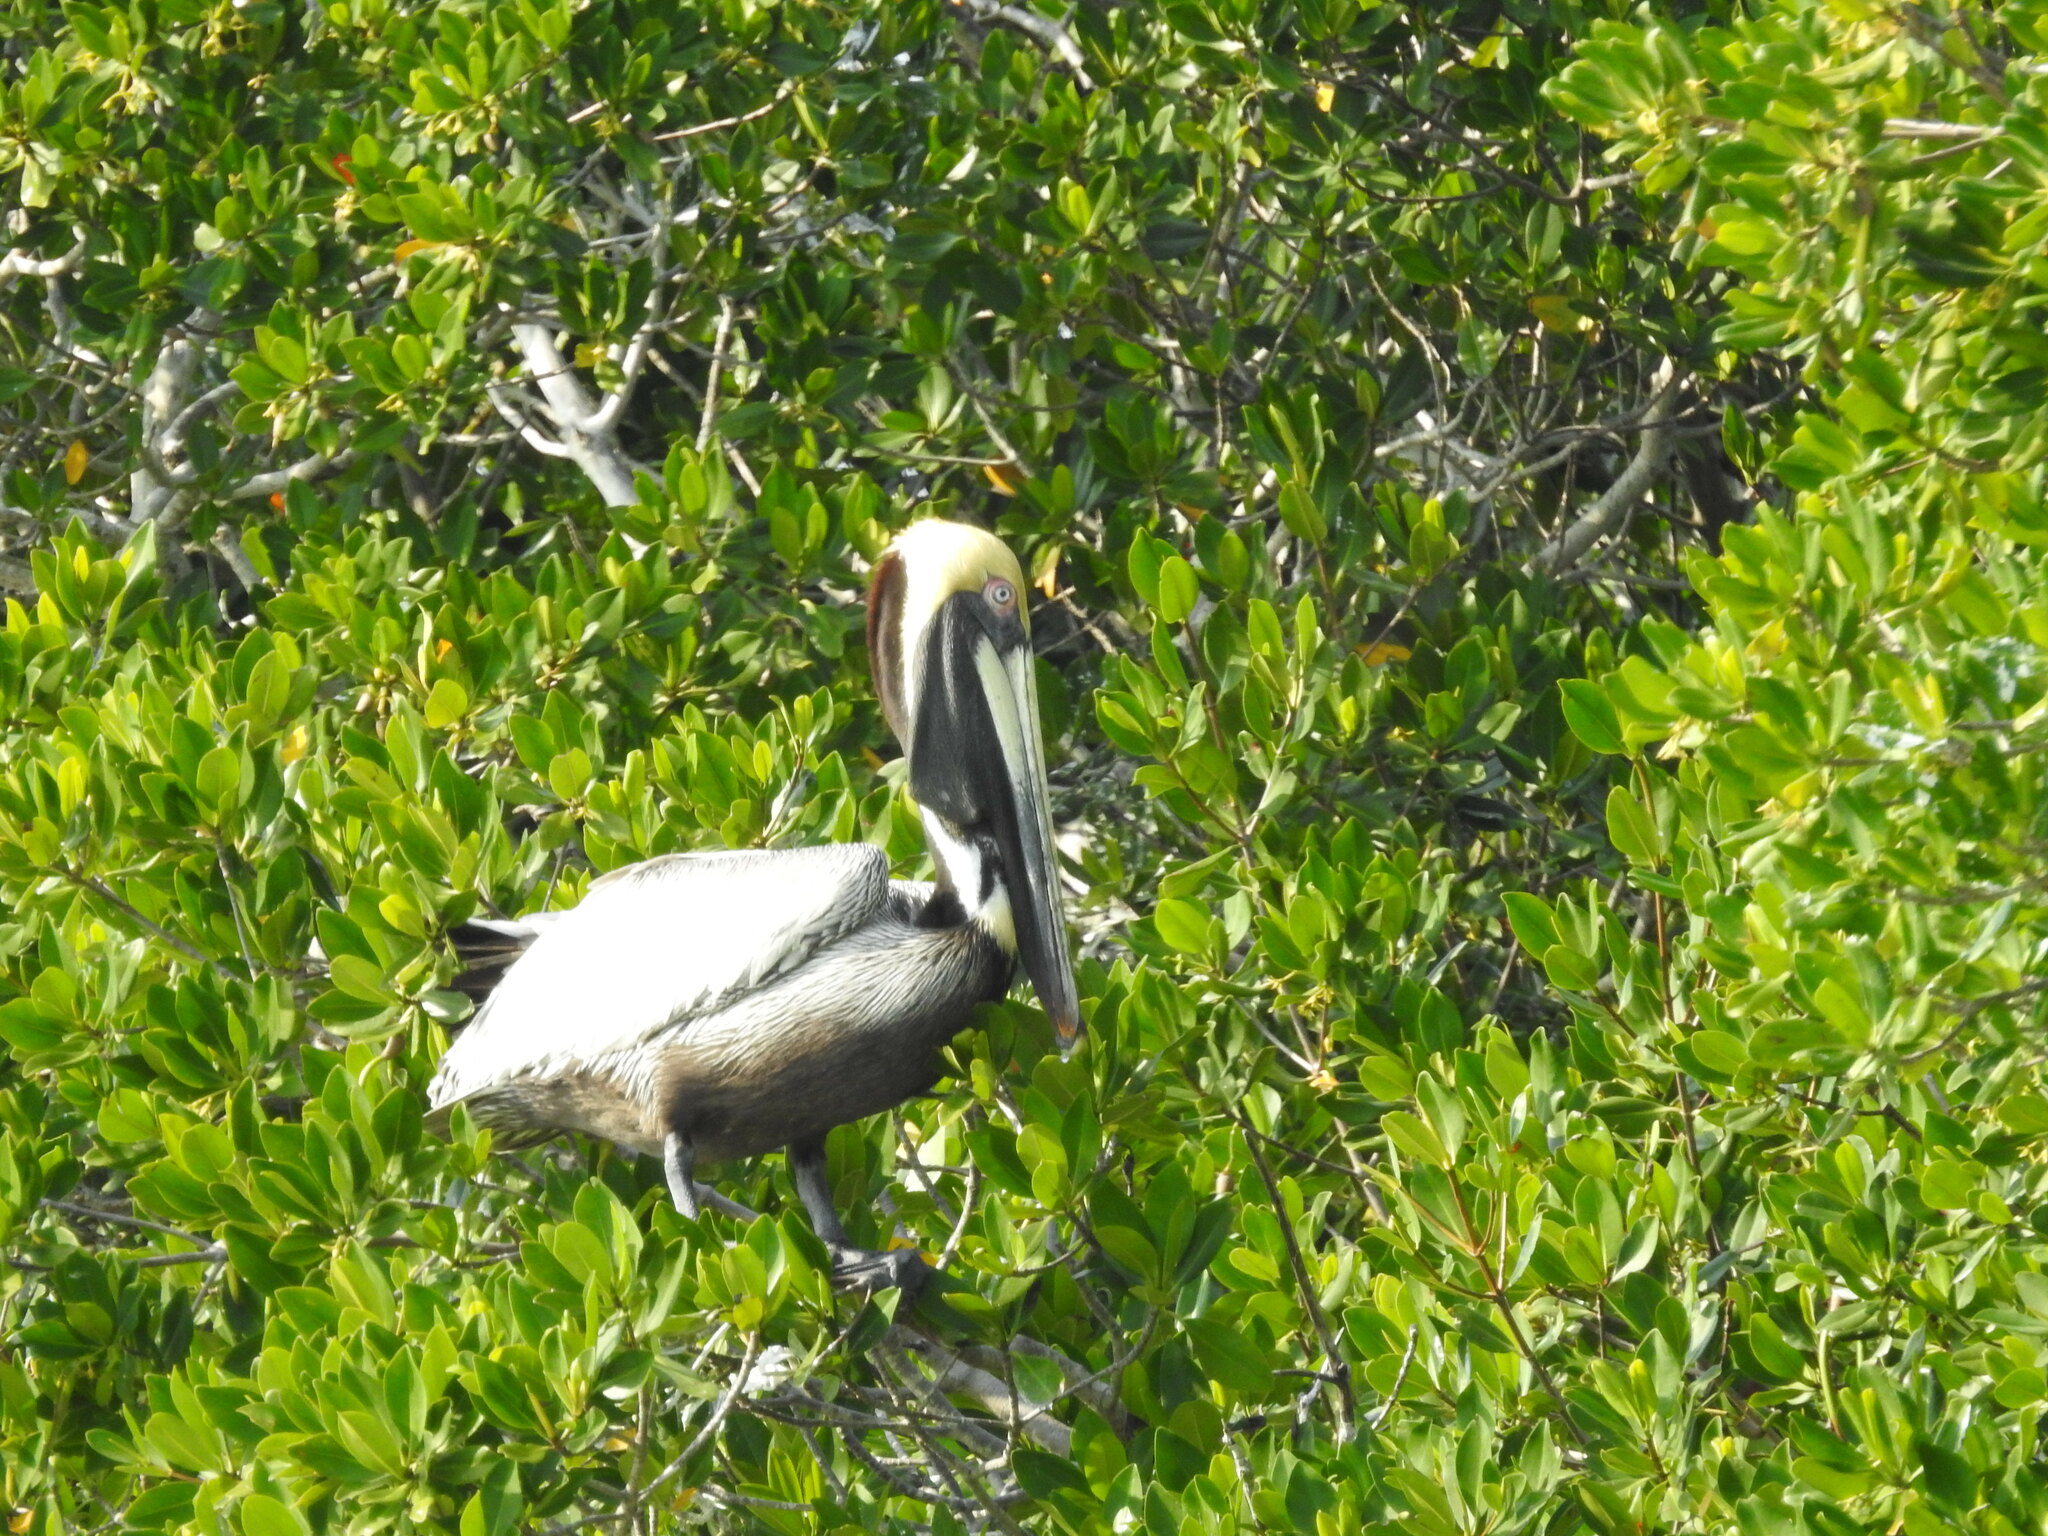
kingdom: Animalia
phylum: Chordata
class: Aves
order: Pelecaniformes
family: Pelecanidae
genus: Pelecanus
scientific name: Pelecanus occidentalis
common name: Brown pelican
